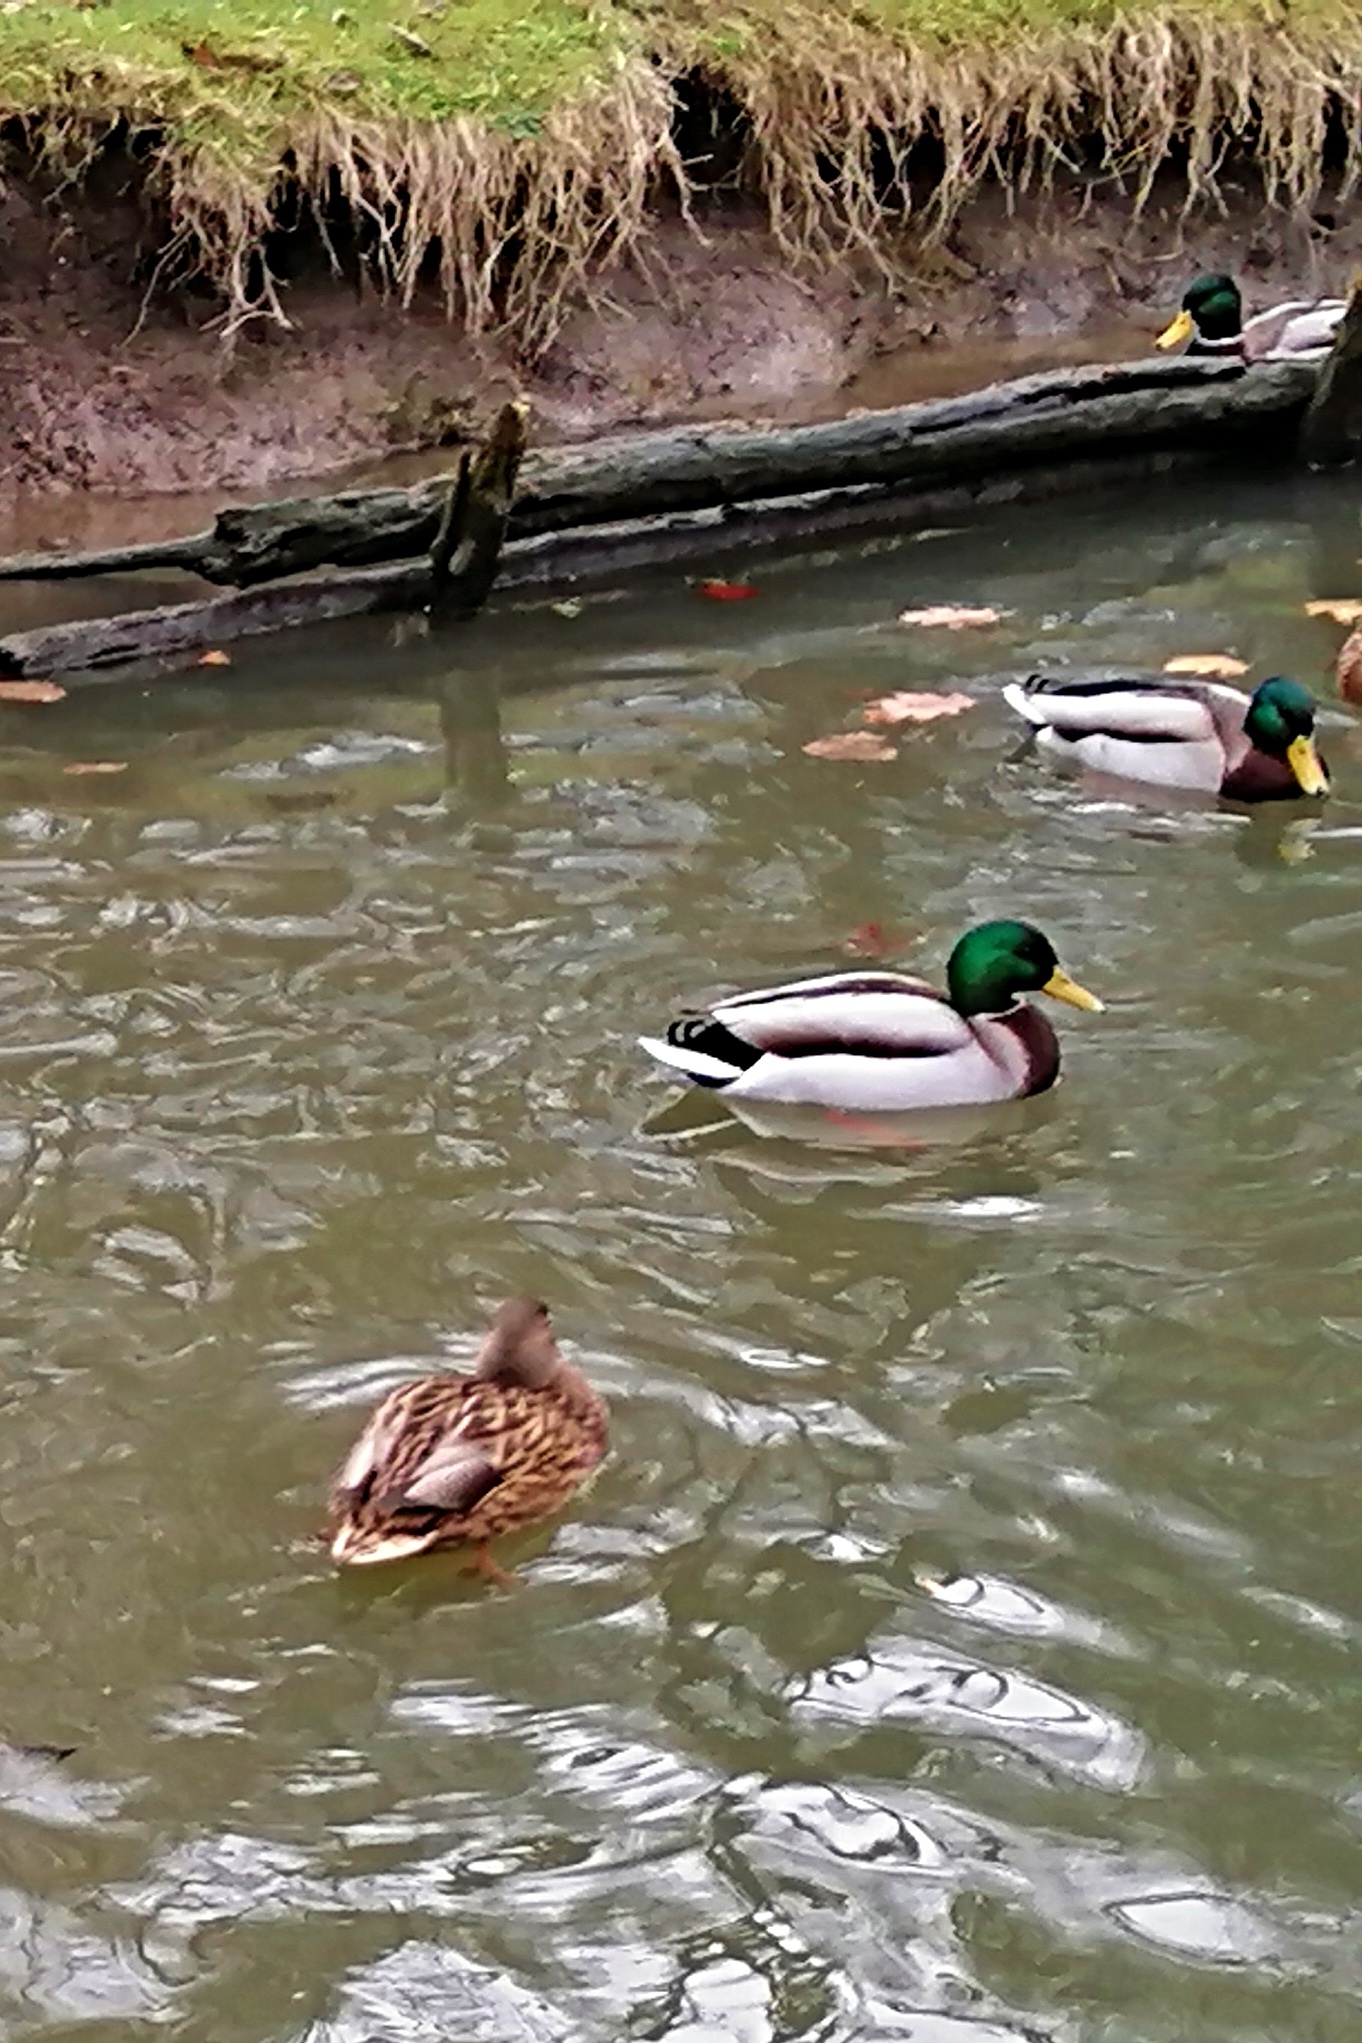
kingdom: Animalia
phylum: Chordata
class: Aves
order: Anseriformes
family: Anatidae
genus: Anas
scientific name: Anas platyrhynchos
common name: Mallard
